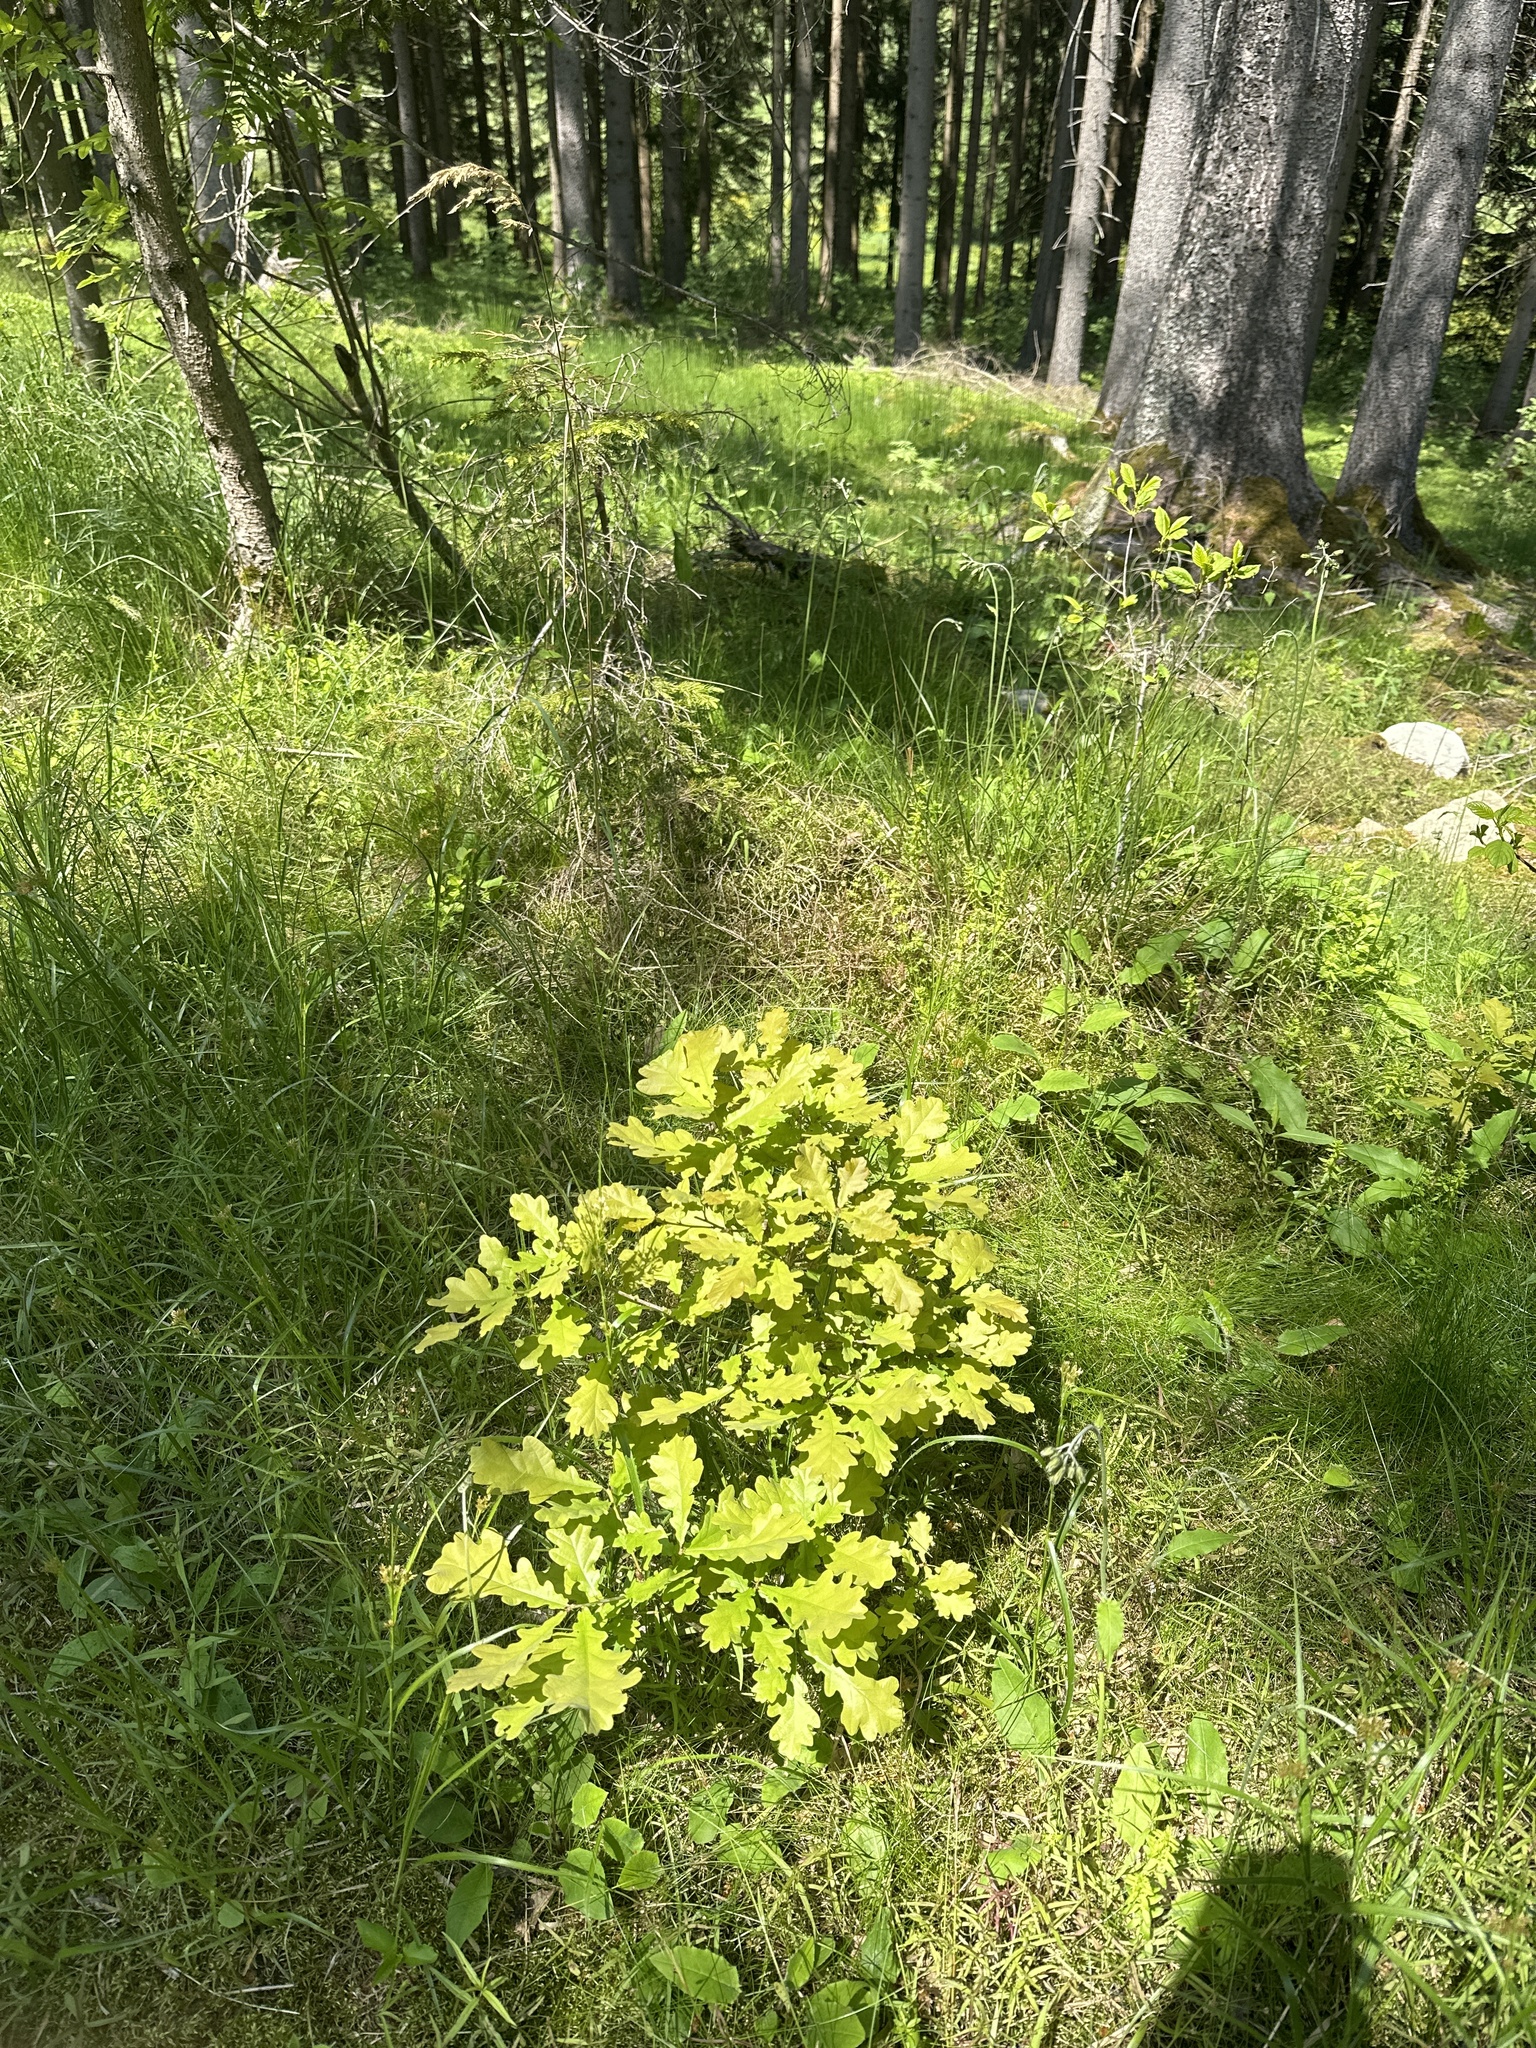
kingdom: Plantae
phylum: Tracheophyta
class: Magnoliopsida
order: Fagales
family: Fagaceae
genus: Quercus
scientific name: Quercus robur
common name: Pedunculate oak
